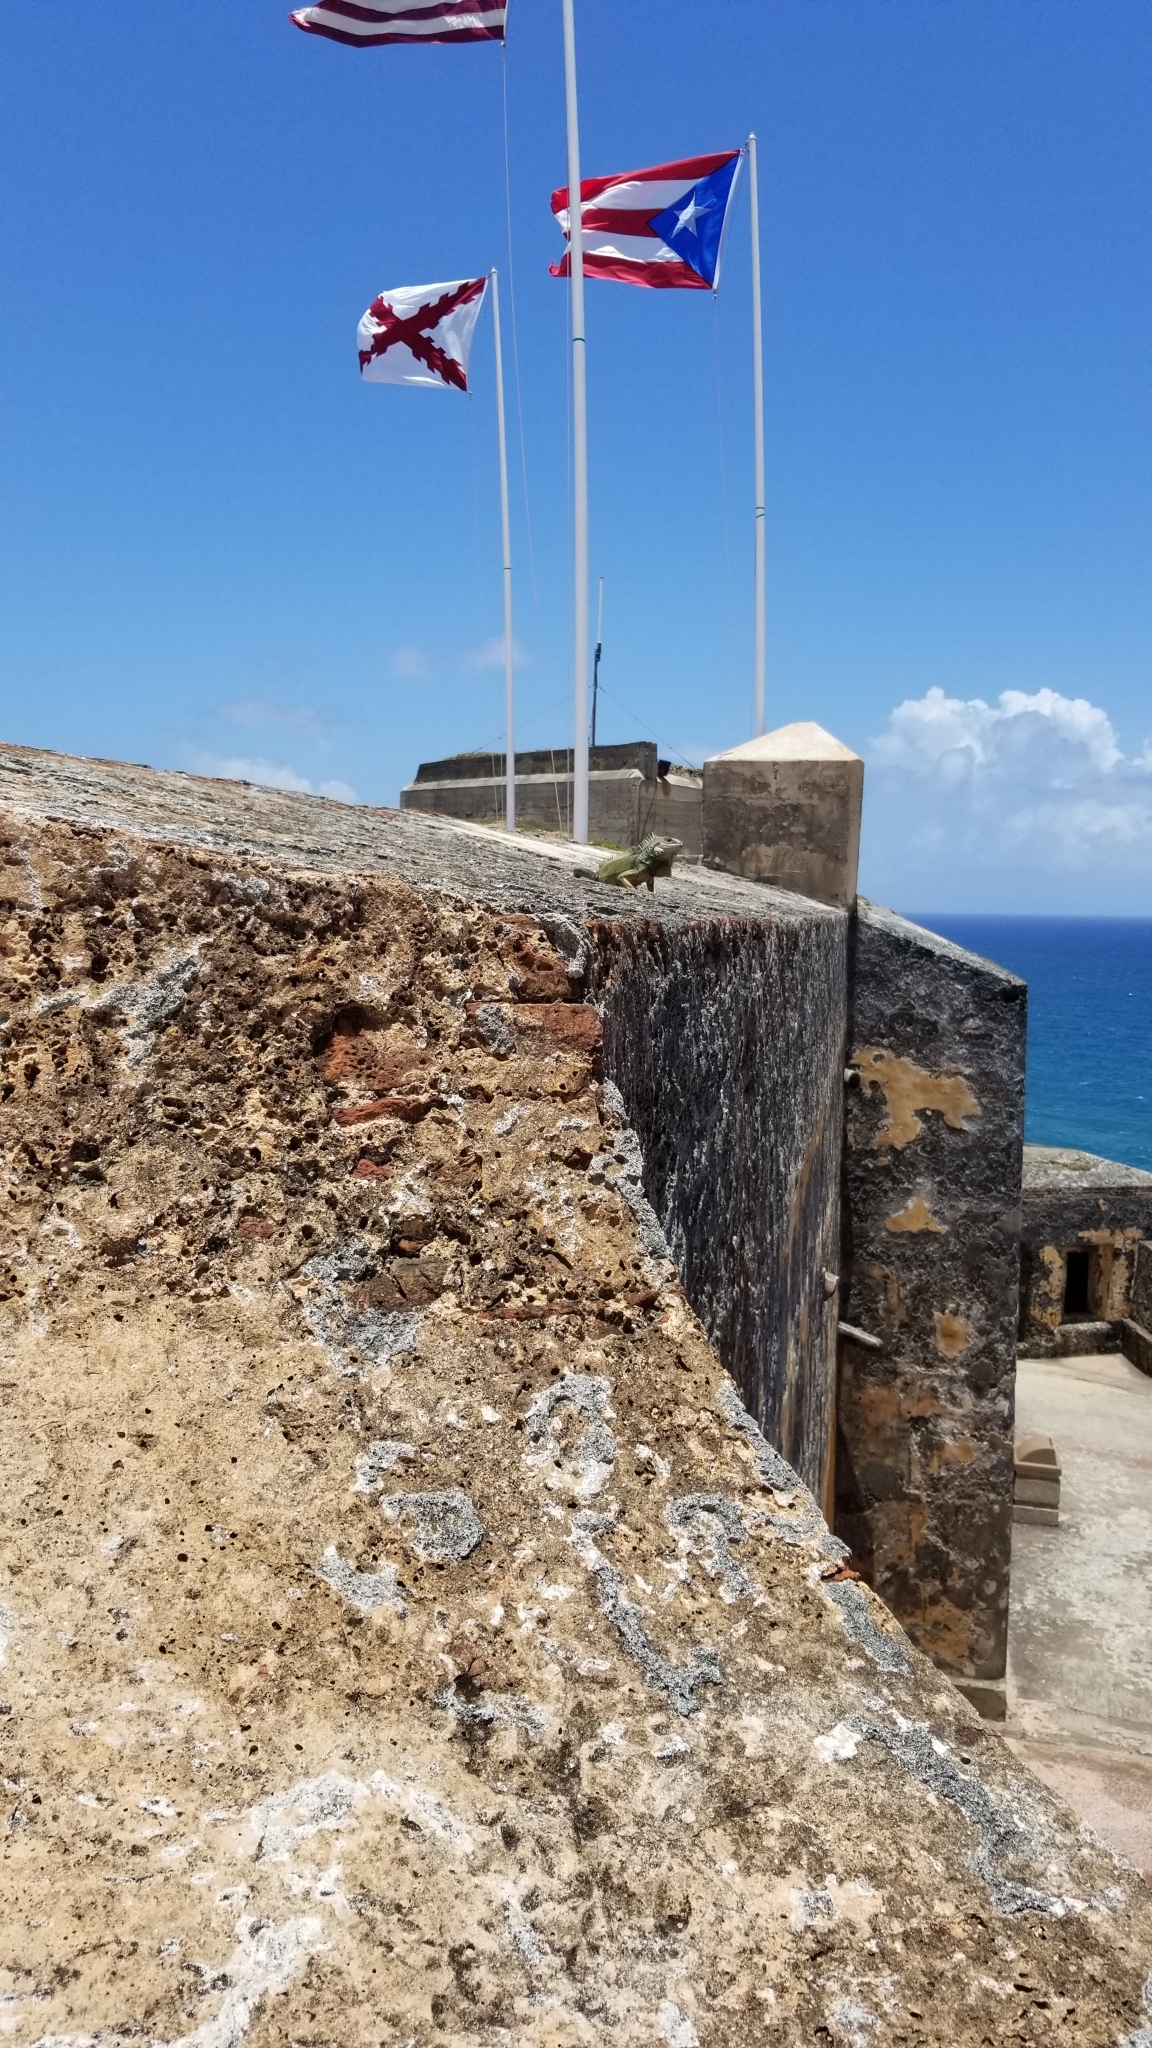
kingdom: Animalia
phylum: Chordata
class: Squamata
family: Iguanidae
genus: Iguana
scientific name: Iguana iguana
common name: Green iguana
